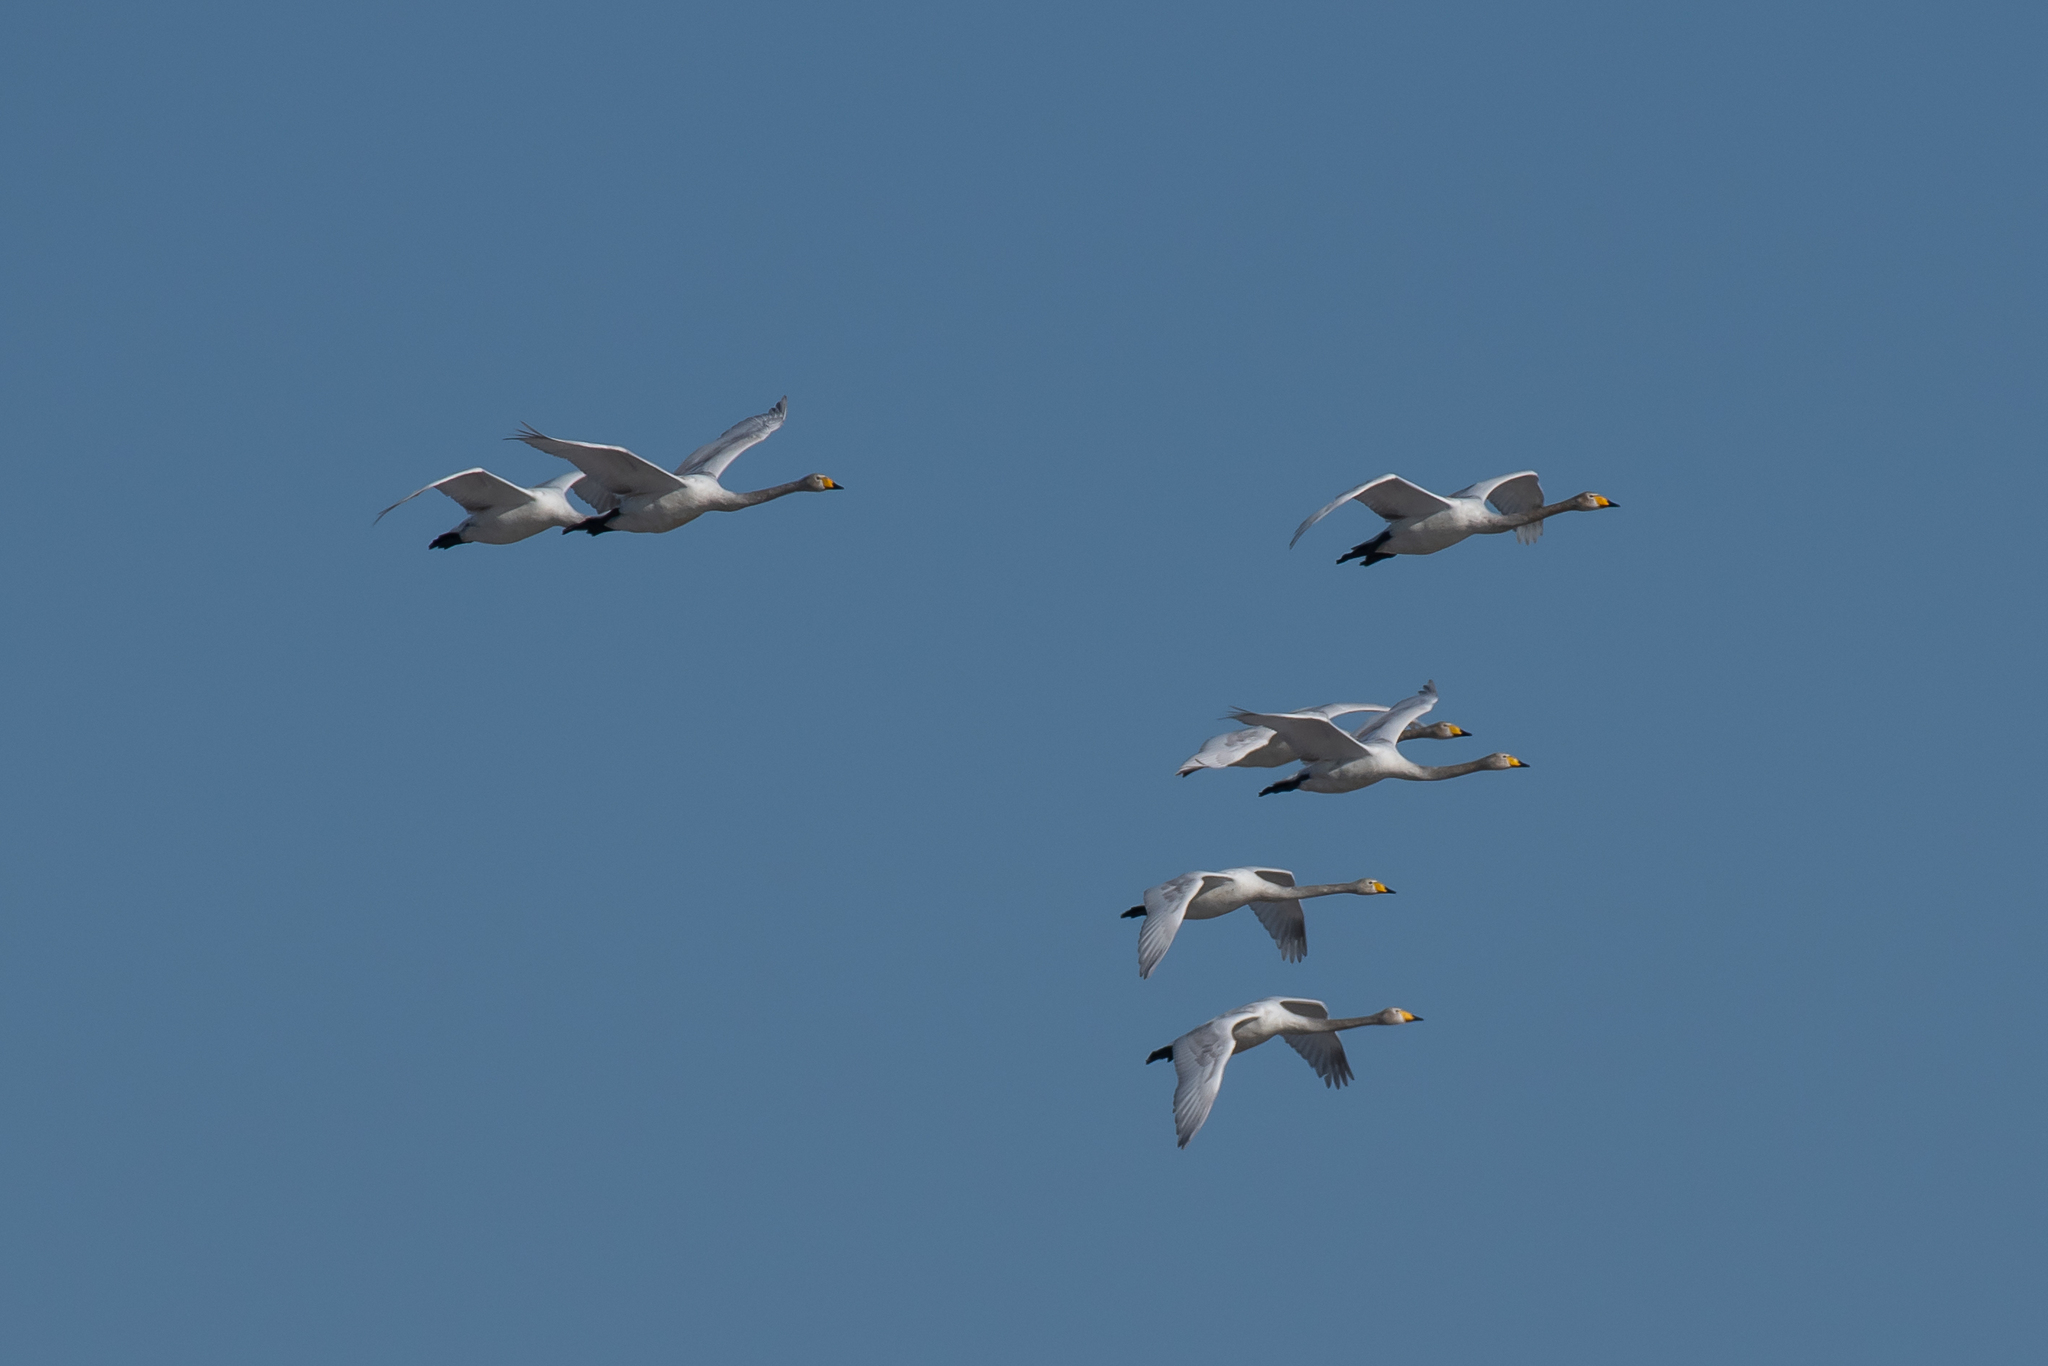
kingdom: Animalia
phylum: Chordata
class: Aves
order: Anseriformes
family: Anatidae
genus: Cygnus
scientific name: Cygnus cygnus
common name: Whooper swan
